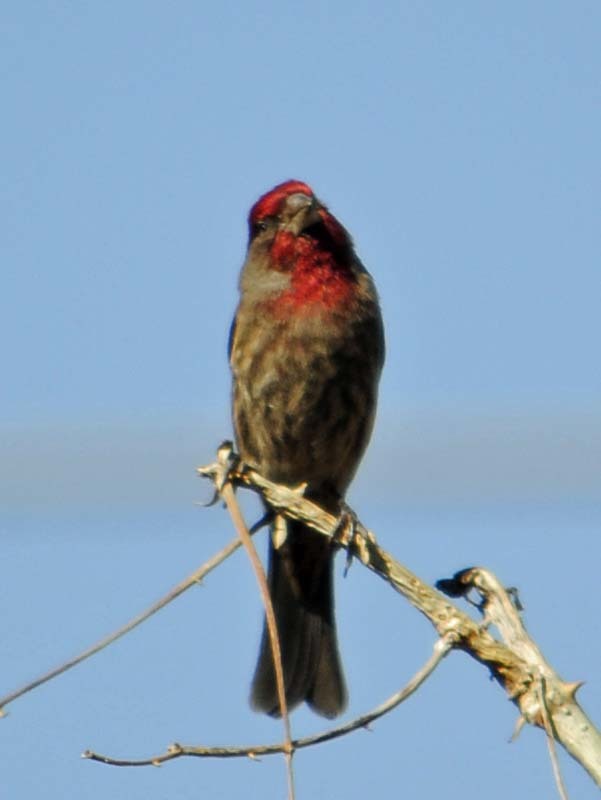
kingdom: Animalia
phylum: Chordata
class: Aves
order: Passeriformes
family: Fringillidae
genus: Haemorhous
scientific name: Haemorhous mexicanus
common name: House finch
